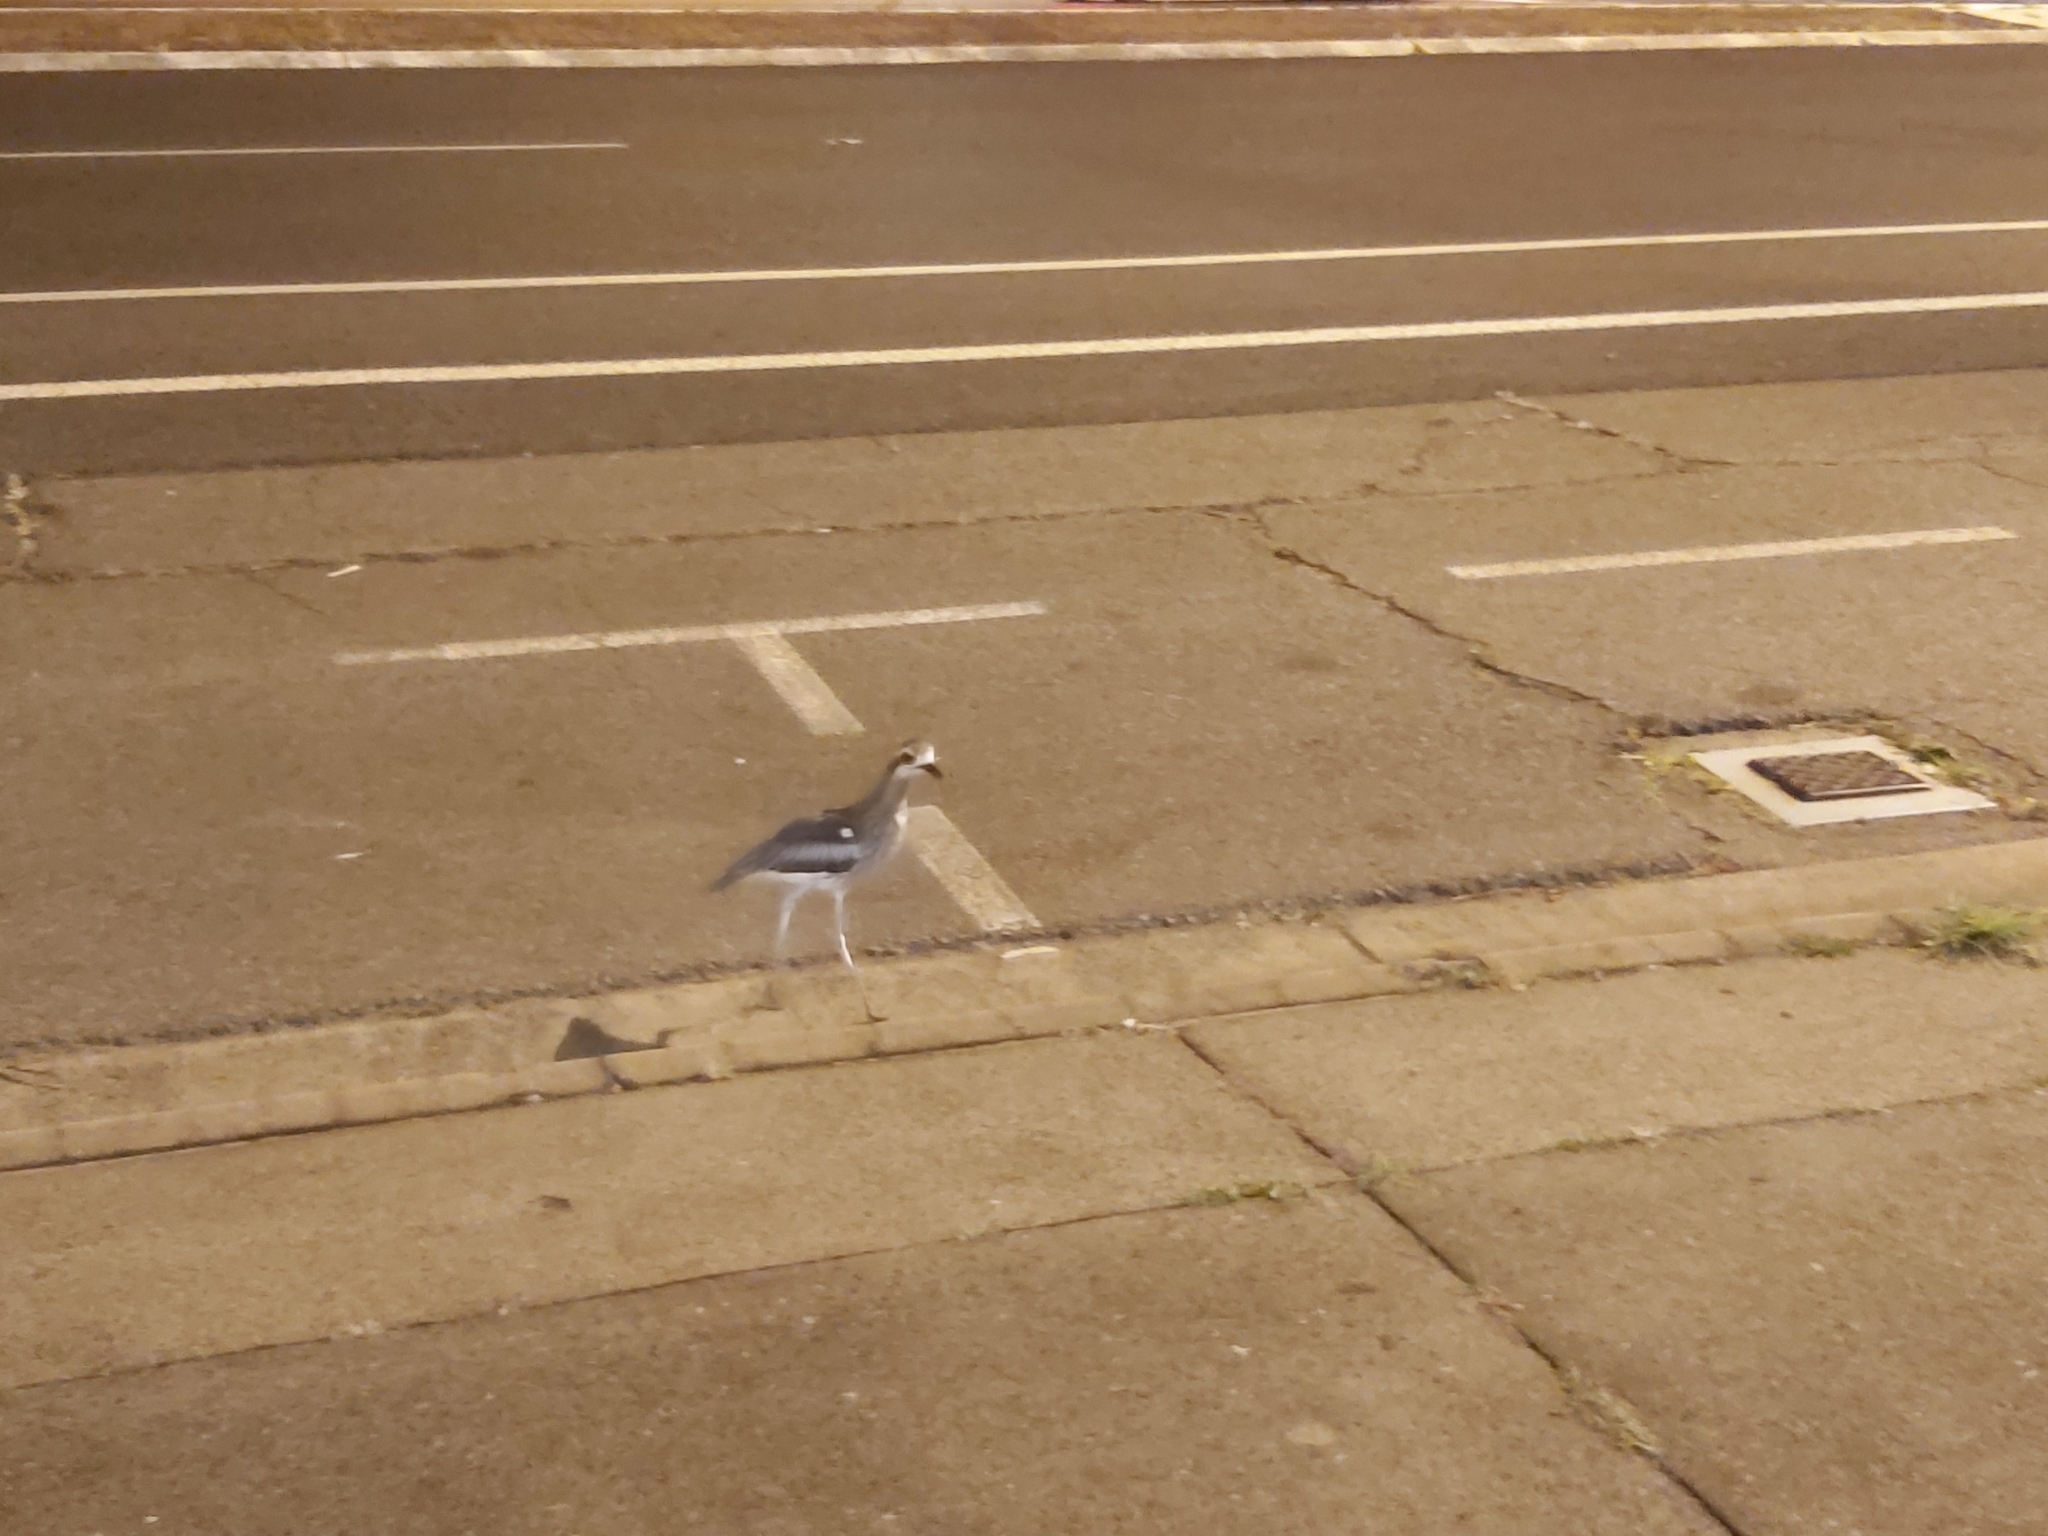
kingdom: Animalia
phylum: Chordata
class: Aves
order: Charadriiformes
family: Burhinidae
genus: Burhinus
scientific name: Burhinus grallarius
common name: Bush stone-curlew
